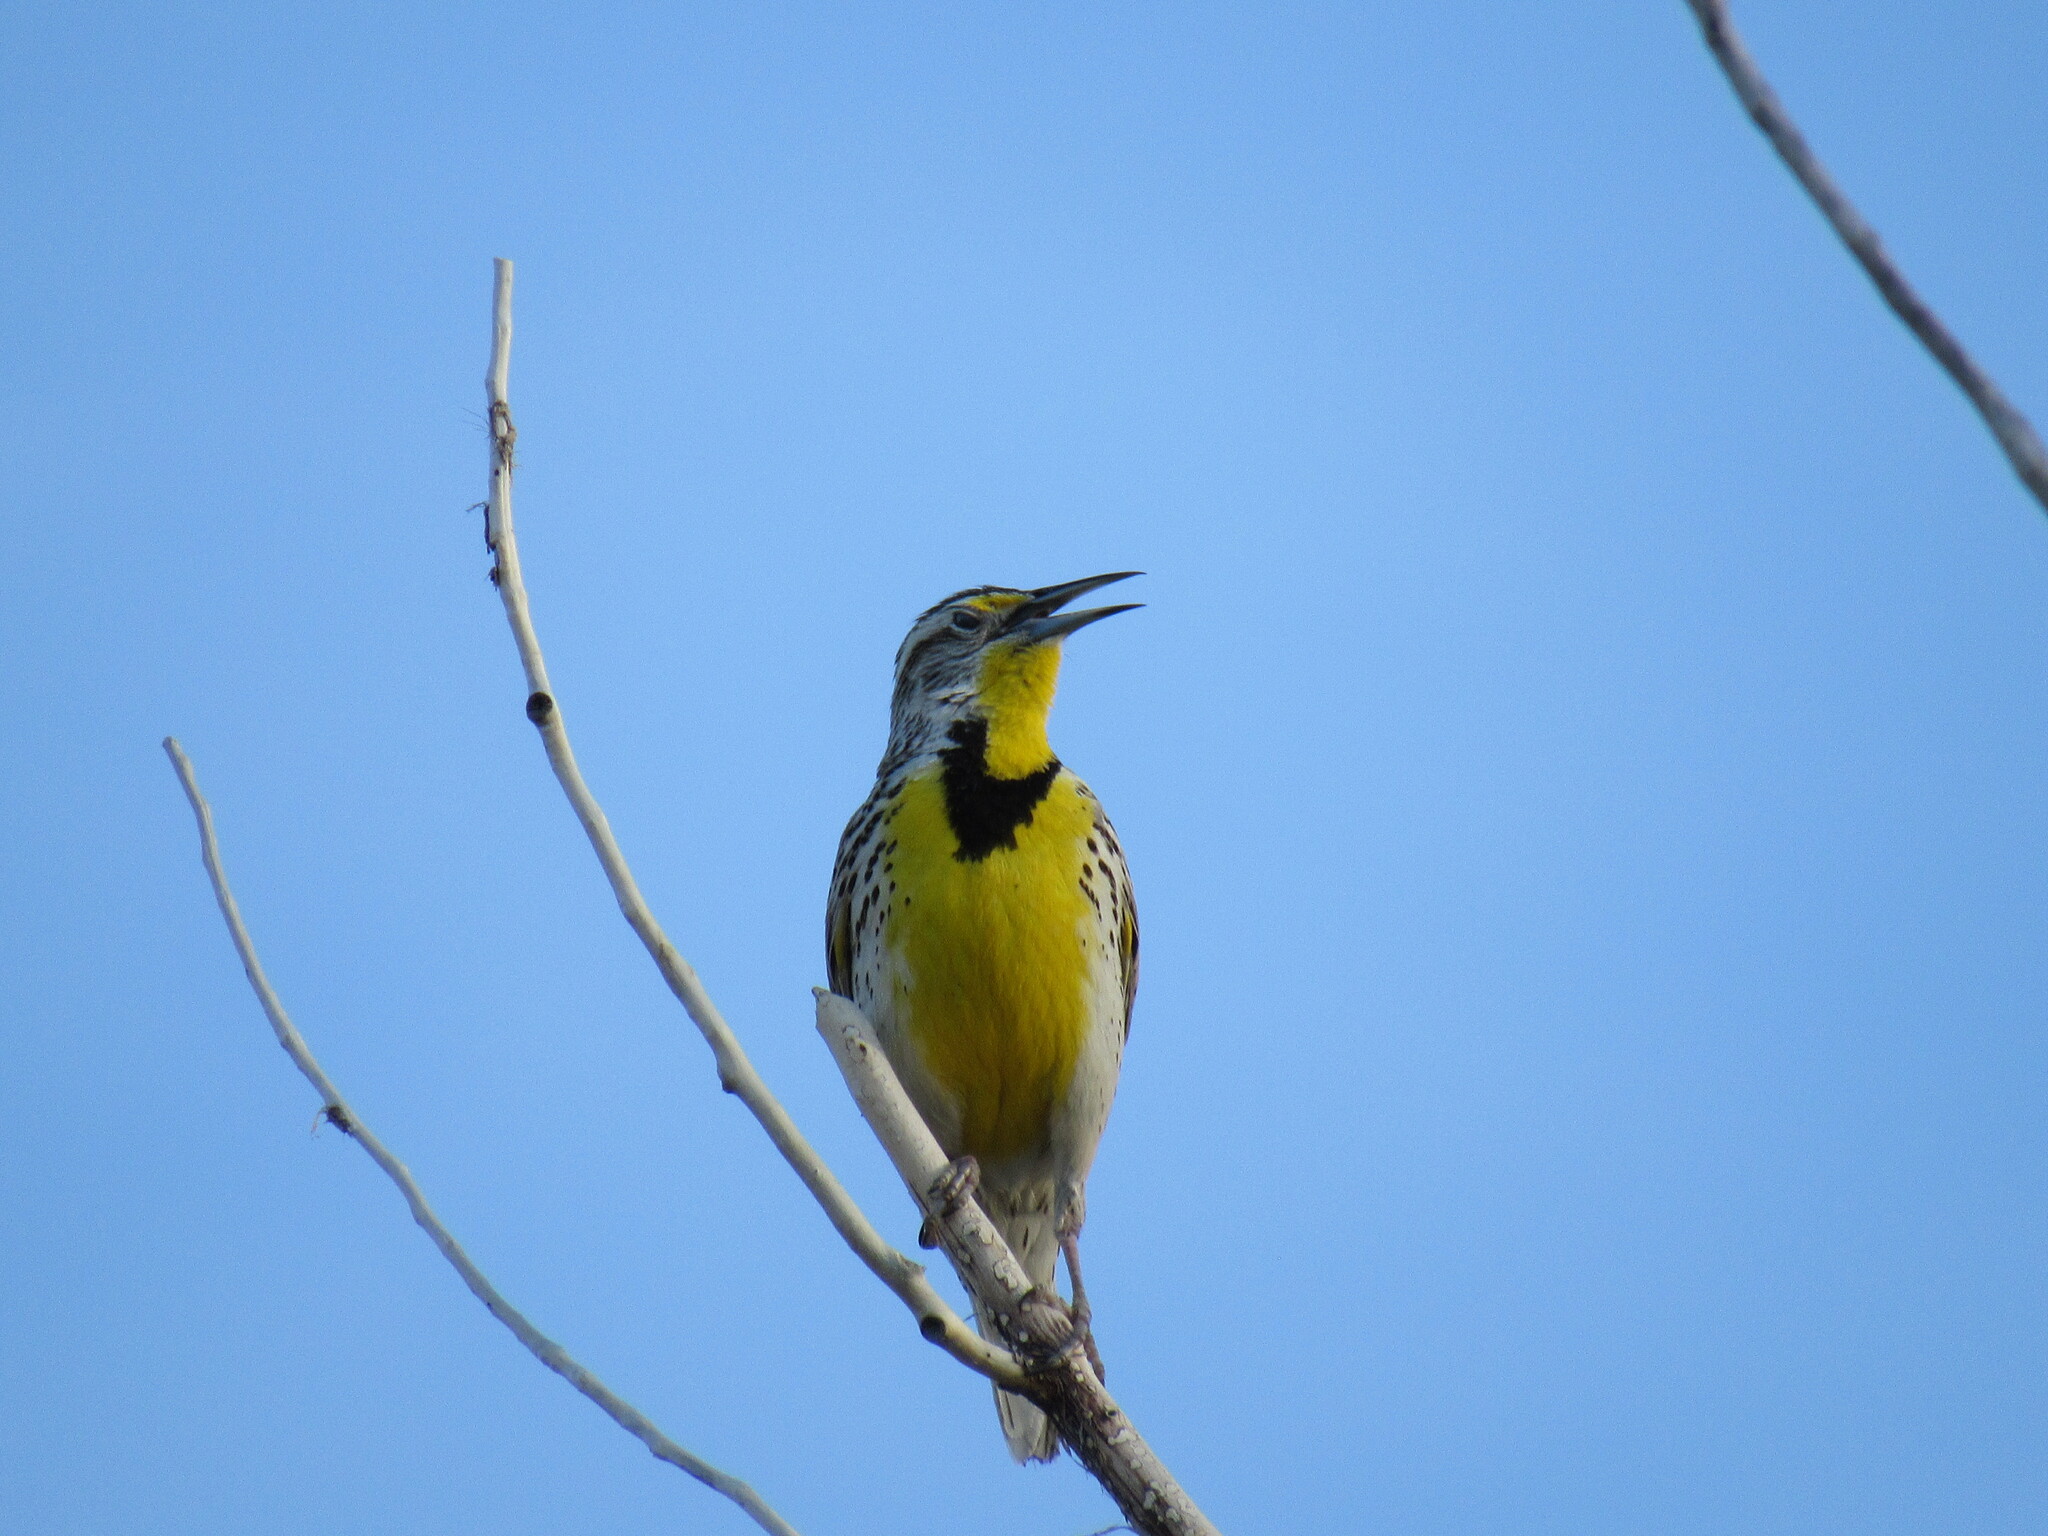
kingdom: Animalia
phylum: Chordata
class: Aves
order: Passeriformes
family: Icteridae
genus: Sturnella
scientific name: Sturnella neglecta
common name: Western meadowlark
